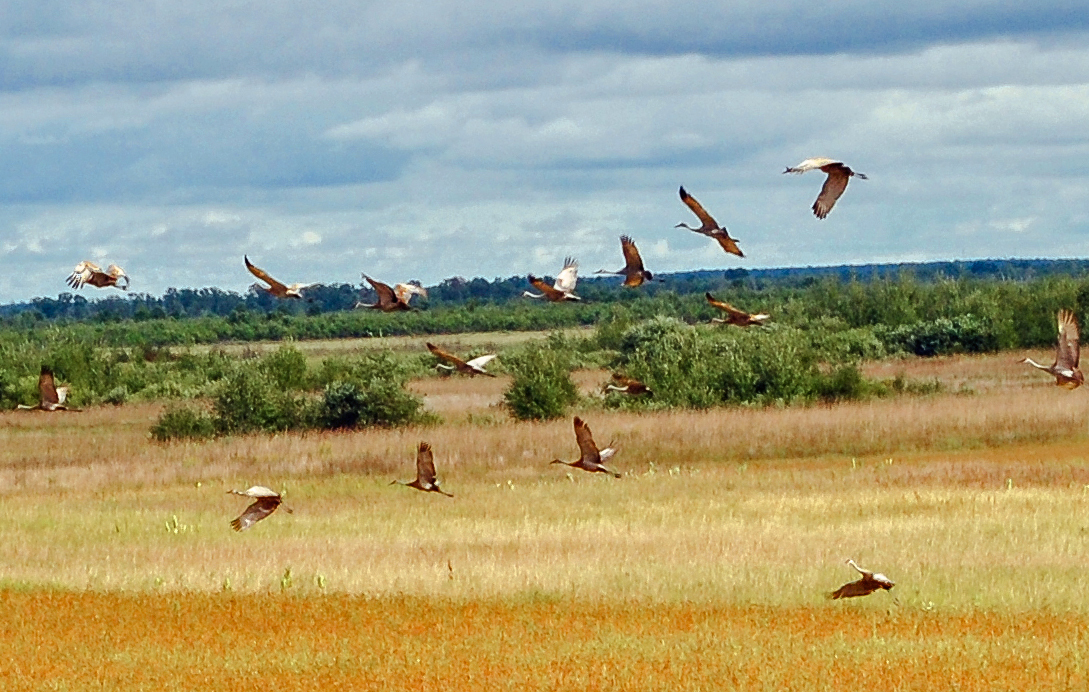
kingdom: Animalia
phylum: Chordata
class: Aves
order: Gruiformes
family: Gruidae
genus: Grus
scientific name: Grus canadensis
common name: Sandhill crane
